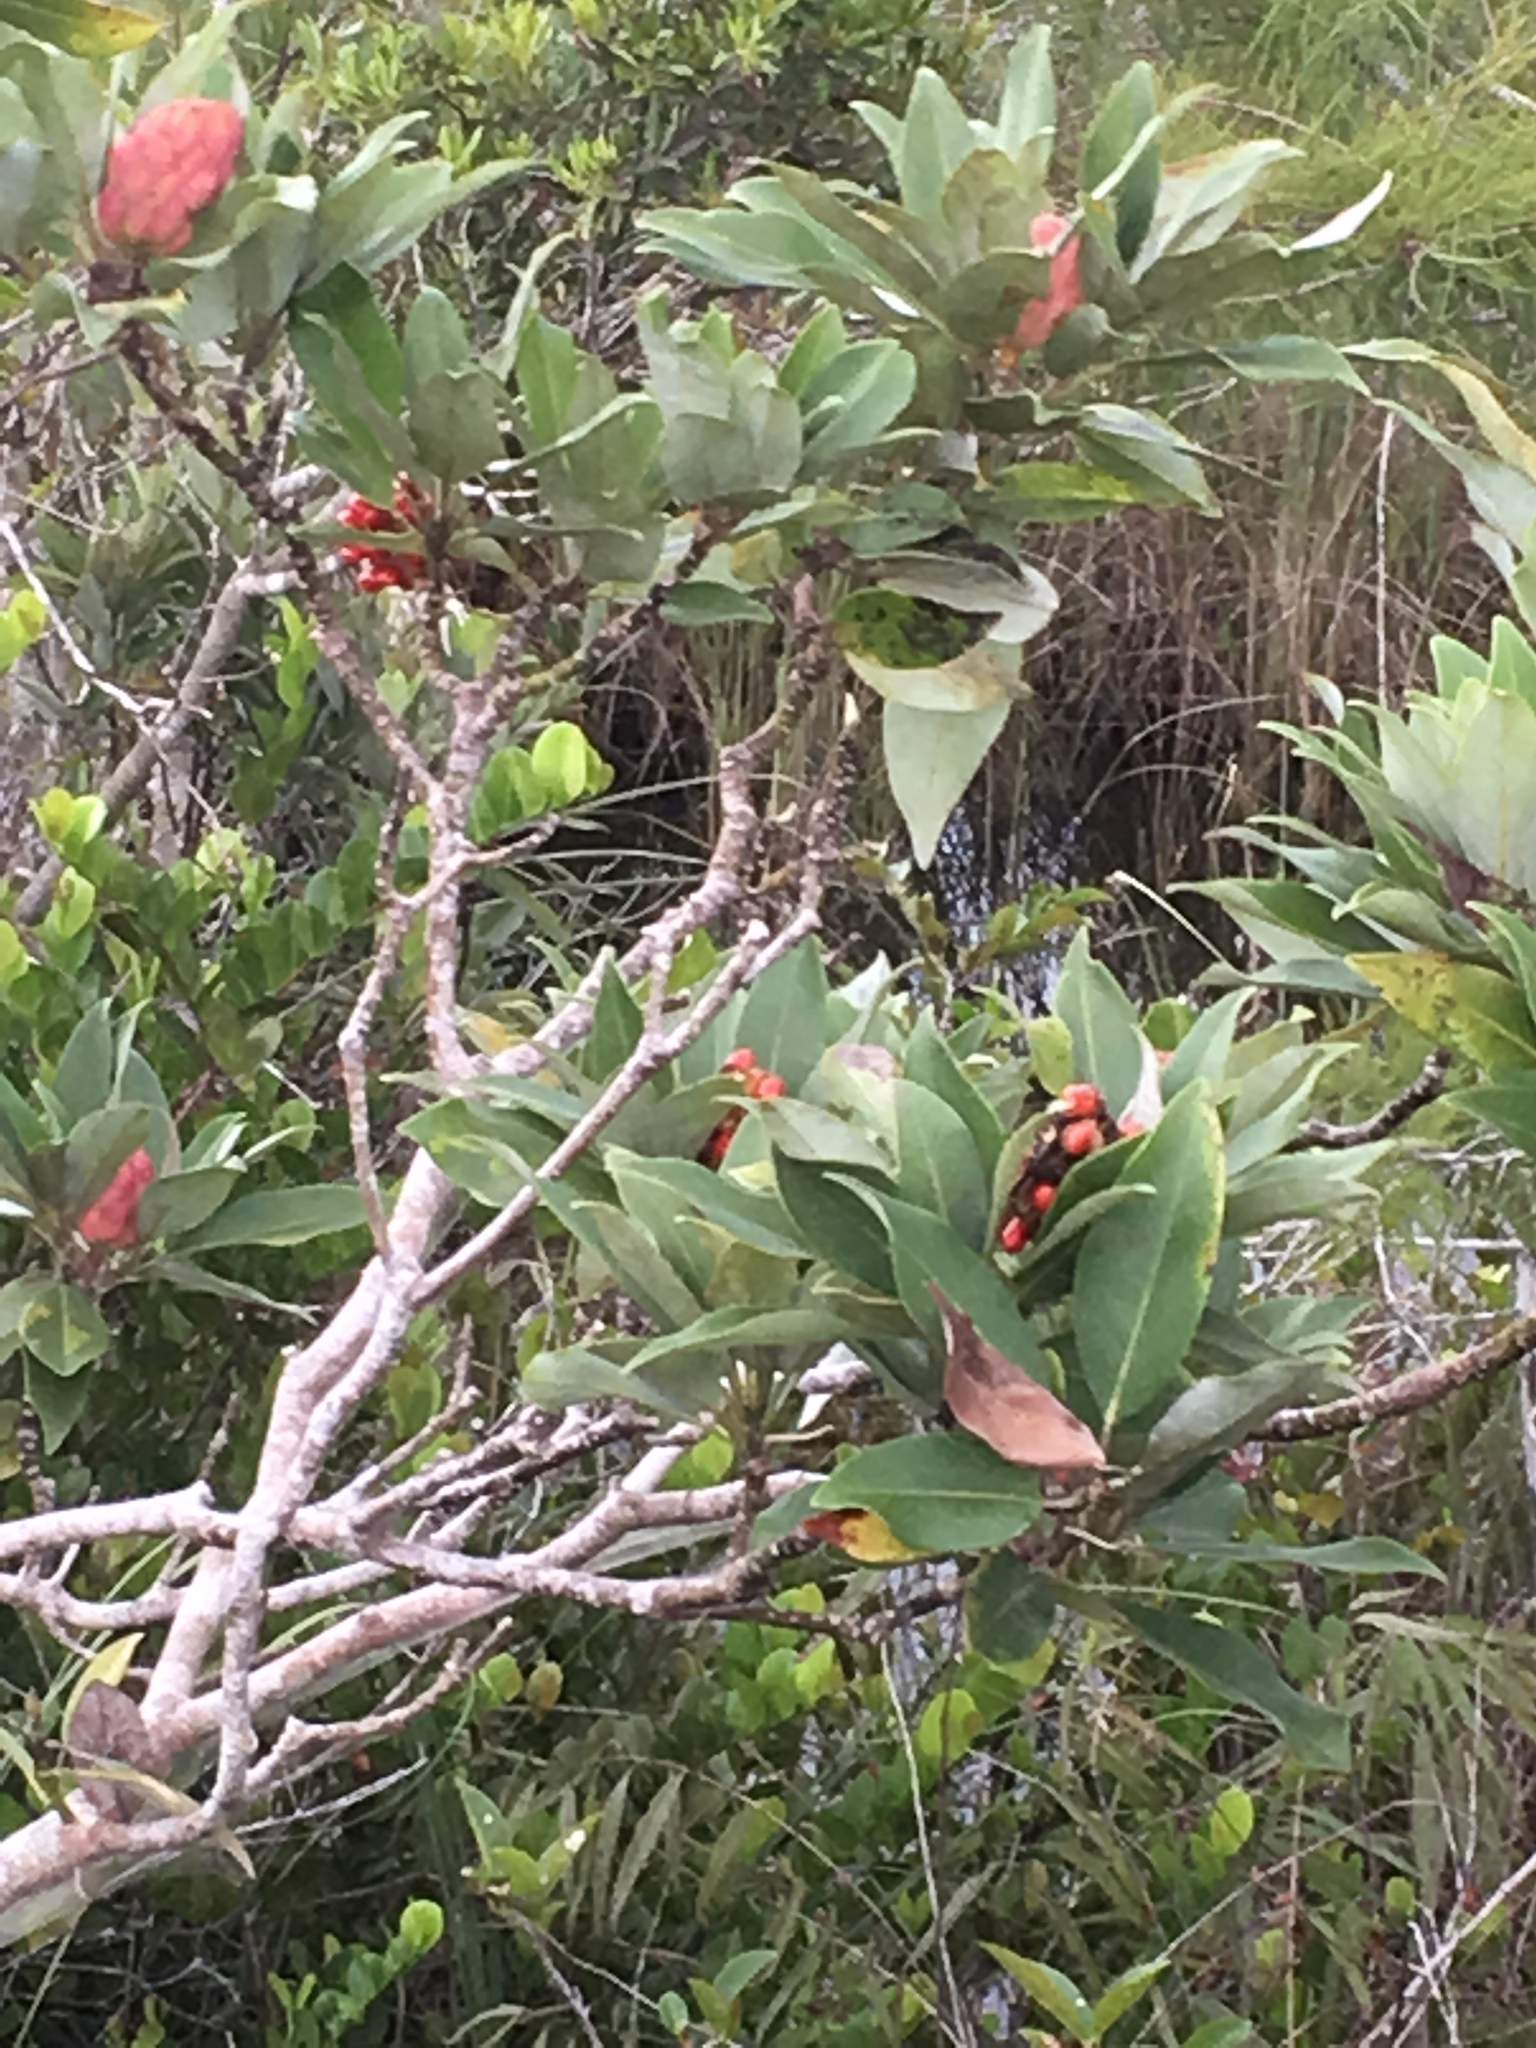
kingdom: Plantae
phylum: Tracheophyta
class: Magnoliopsida
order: Magnoliales
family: Magnoliaceae
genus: Magnolia
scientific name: Magnolia virginiana
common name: Swamp bay
